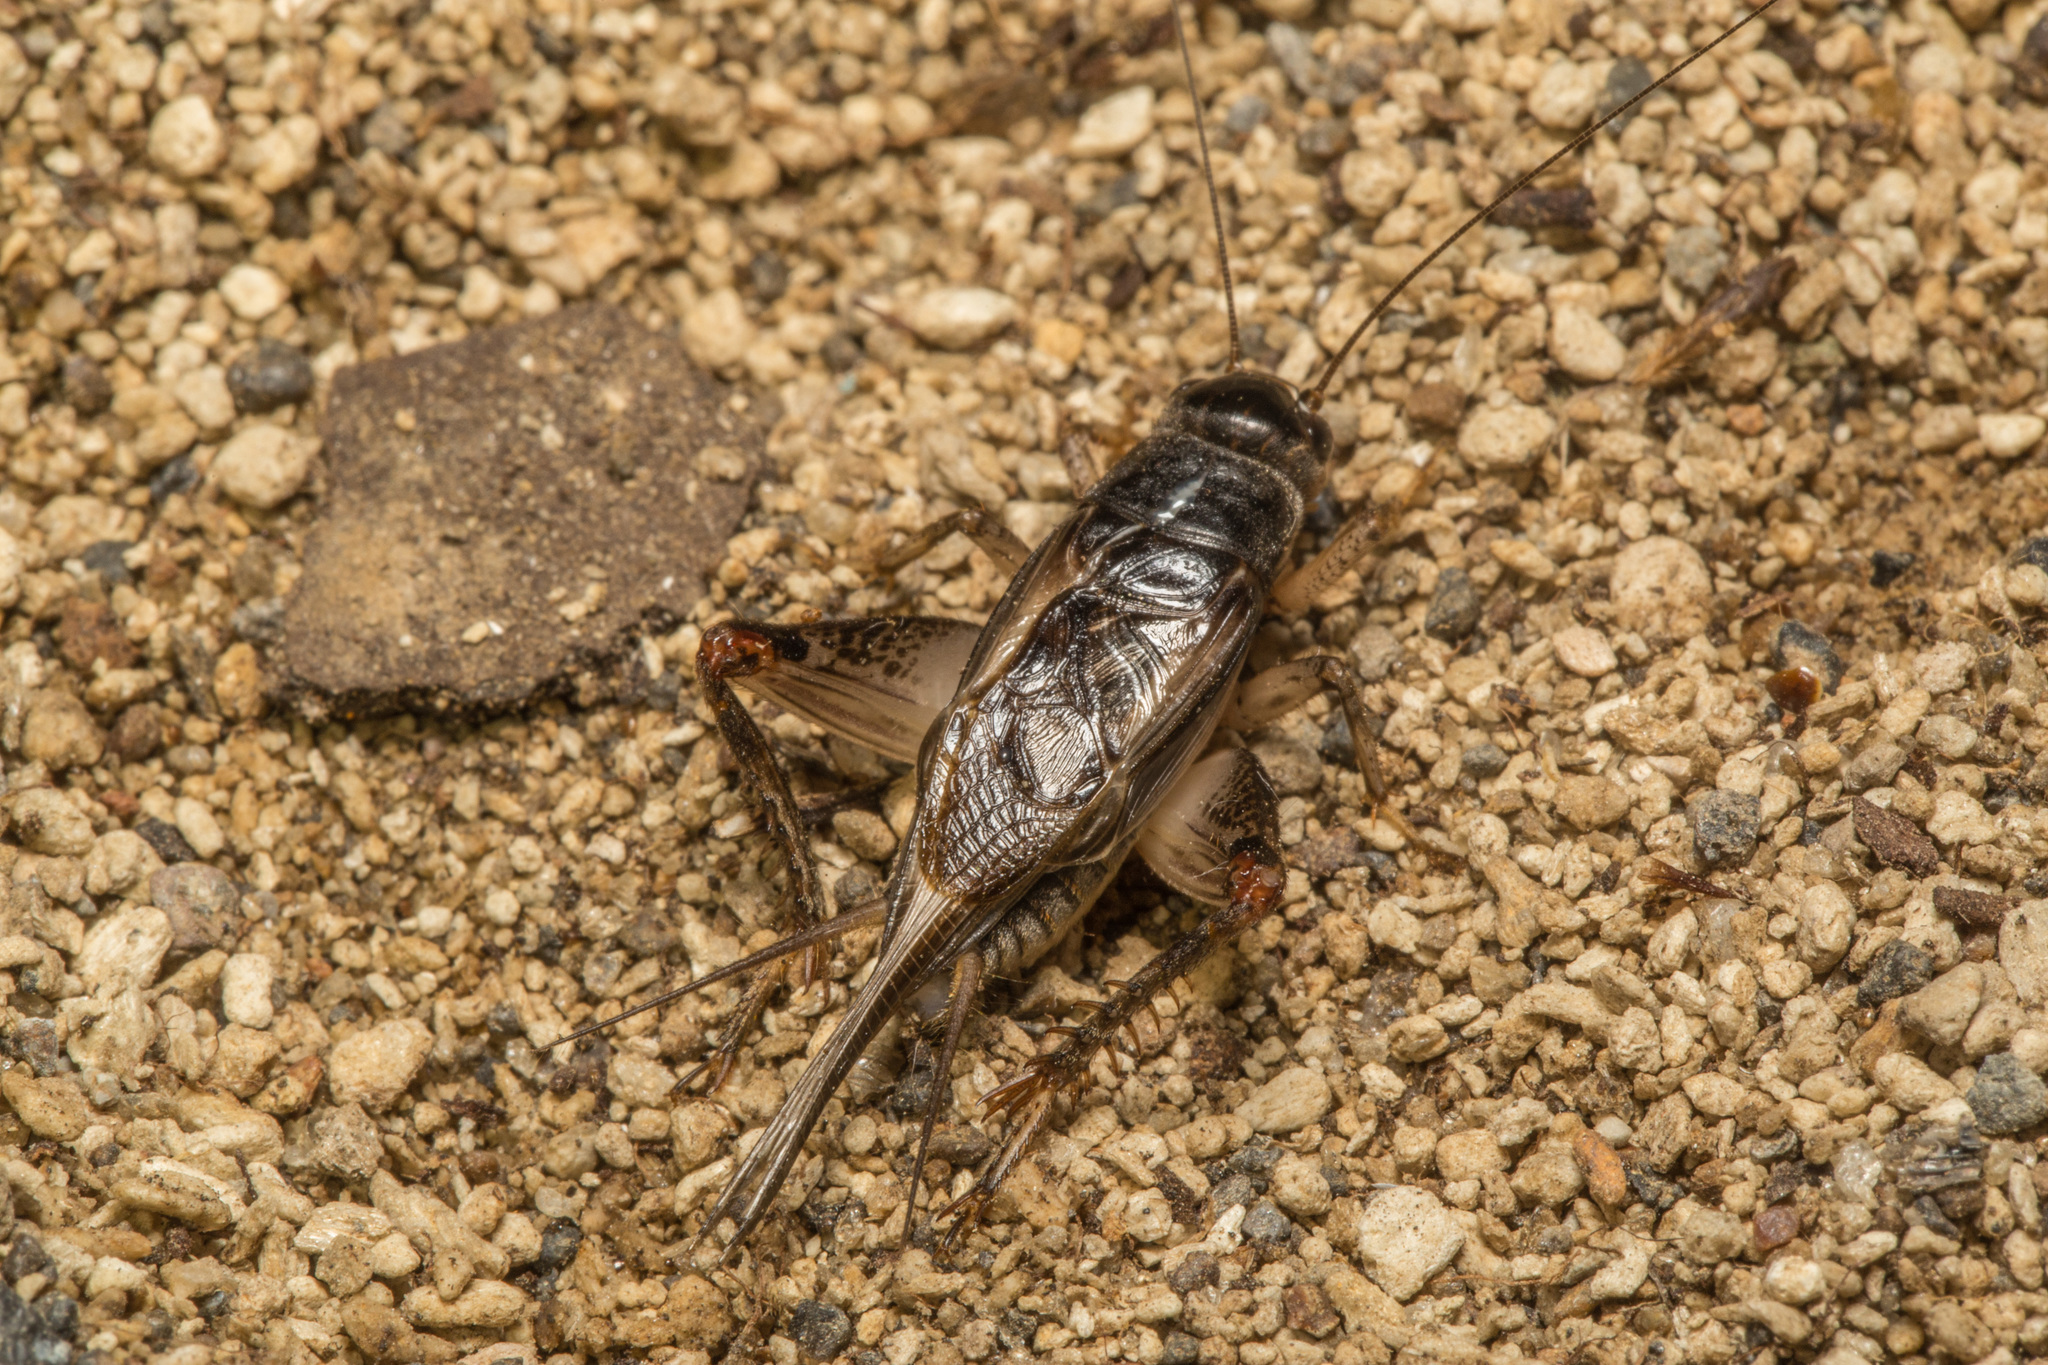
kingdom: Animalia
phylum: Arthropoda
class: Insecta
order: Orthoptera
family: Gryllidae
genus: Lepidogryllus
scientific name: Lepidogryllus parvulus
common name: Fast-chirping field crickets
